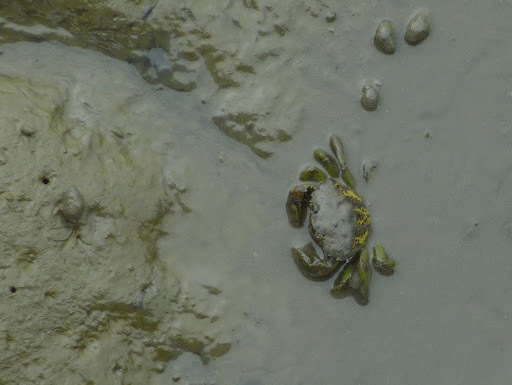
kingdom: Animalia
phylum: Arthropoda
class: Malacostraca
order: Decapoda
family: Carcinidae
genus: Carcinus
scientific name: Carcinus maenas
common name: European green crab
